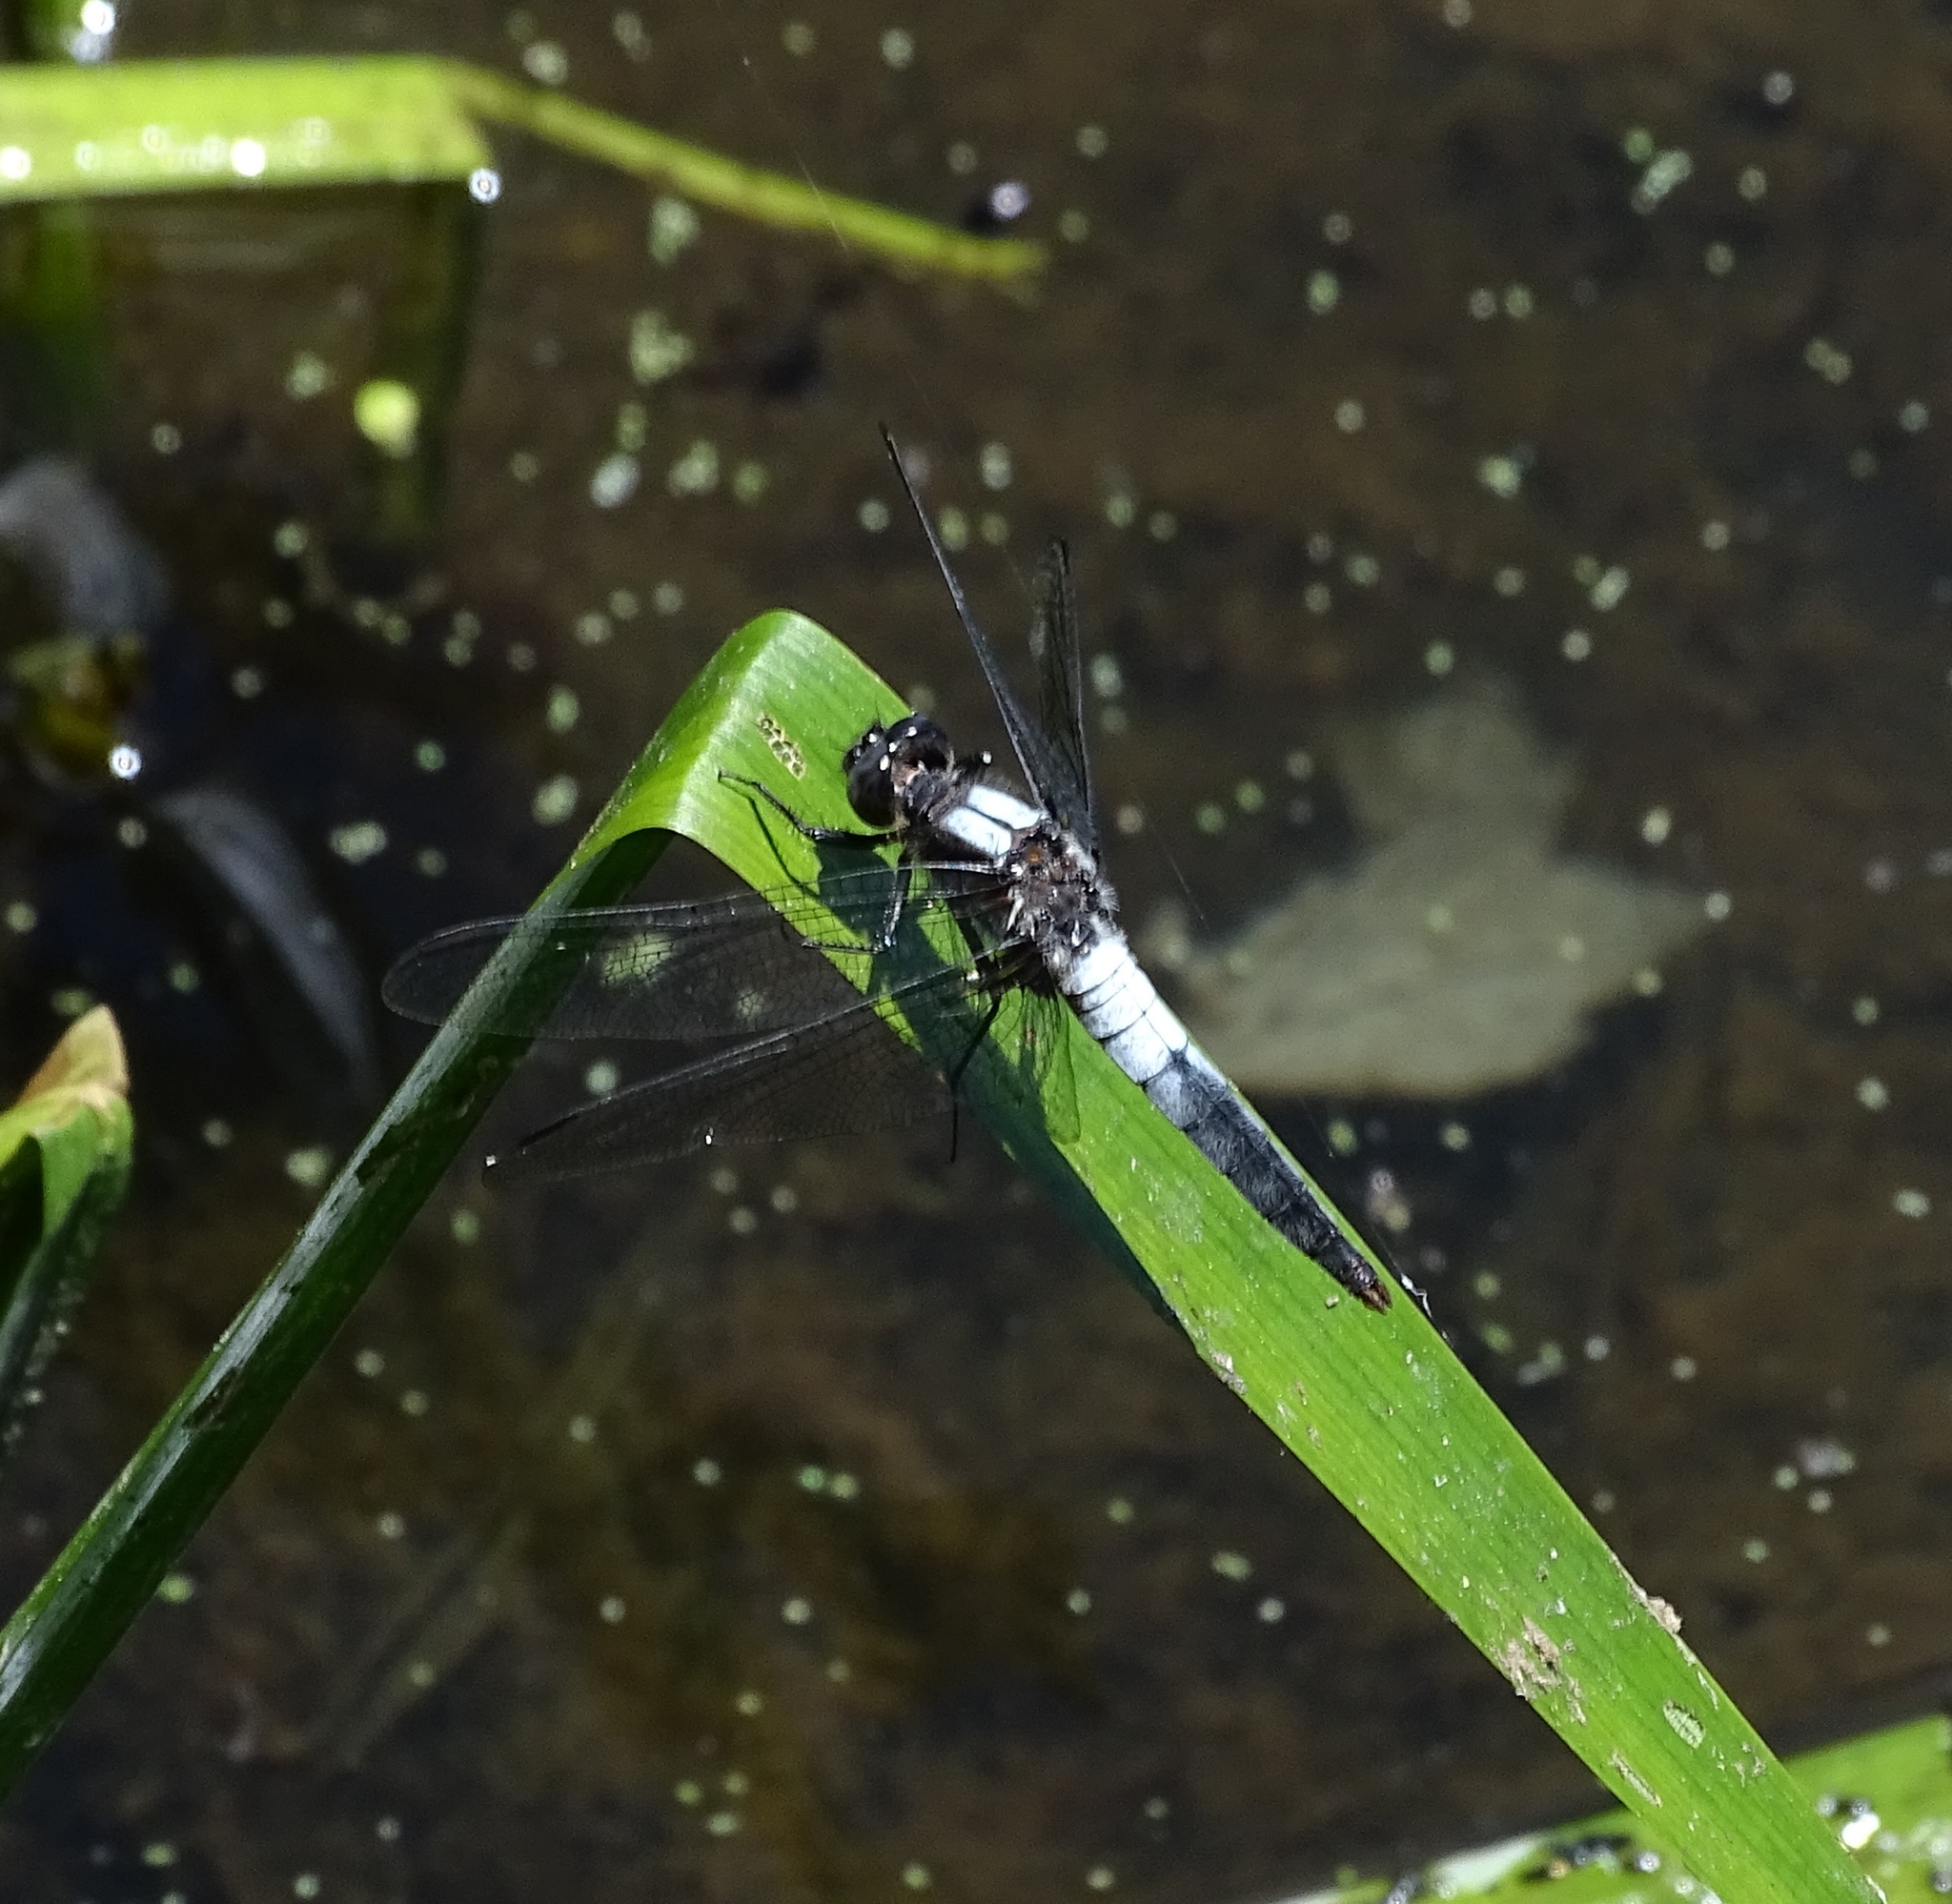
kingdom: Animalia
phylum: Arthropoda
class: Insecta
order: Odonata
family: Libellulidae
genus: Ladona
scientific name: Ladona julia
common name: Chalk-fronted corporal
